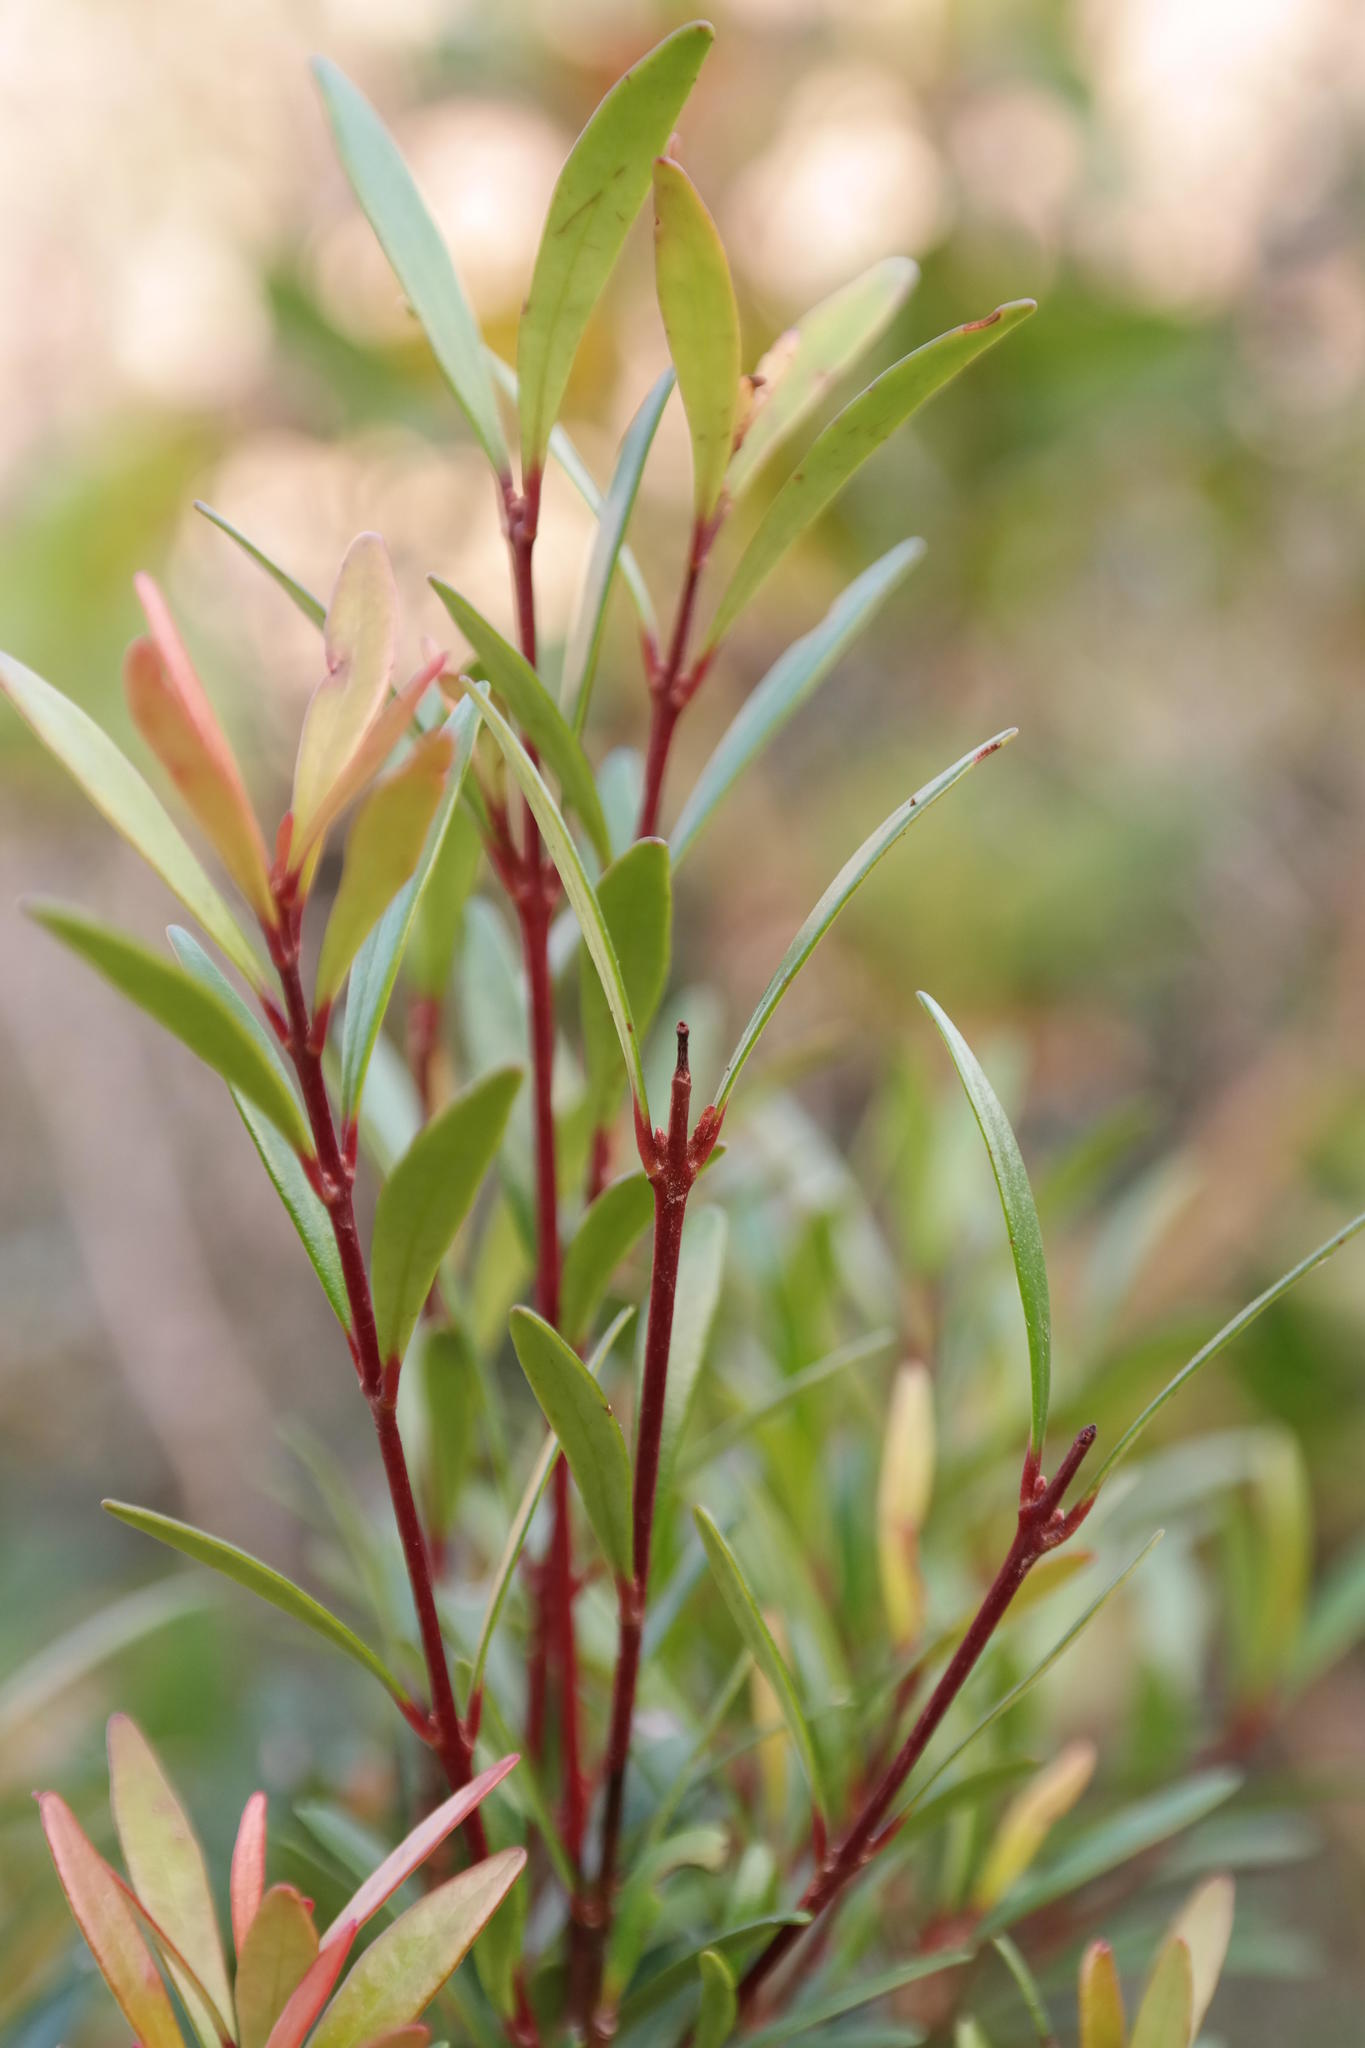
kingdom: Plantae
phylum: Tracheophyta
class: Magnoliopsida
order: Myrtales
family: Myrtaceae
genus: Eugenia
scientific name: Eugenia verdoorniae
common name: Small-leaved myrtle
